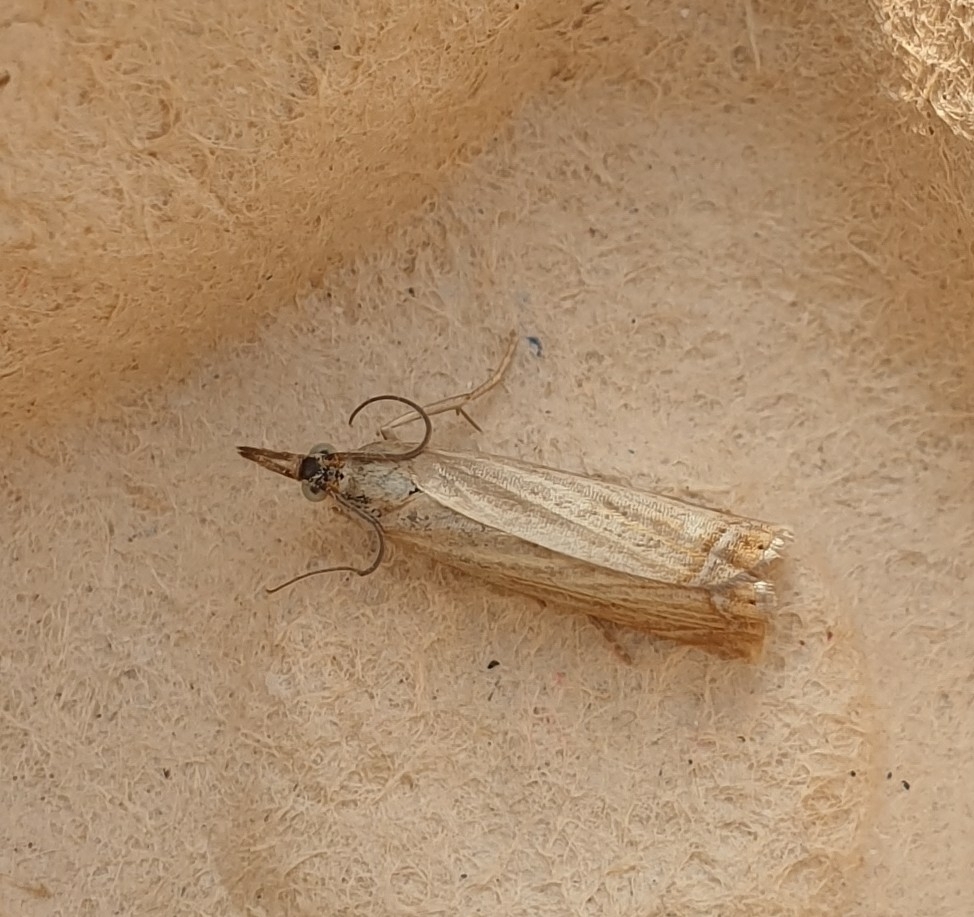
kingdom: Animalia
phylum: Arthropoda
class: Insecta
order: Lepidoptera
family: Crambidae
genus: Chrysoteuchia
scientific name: Chrysoteuchia culmella
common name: Garden grass-veneer
